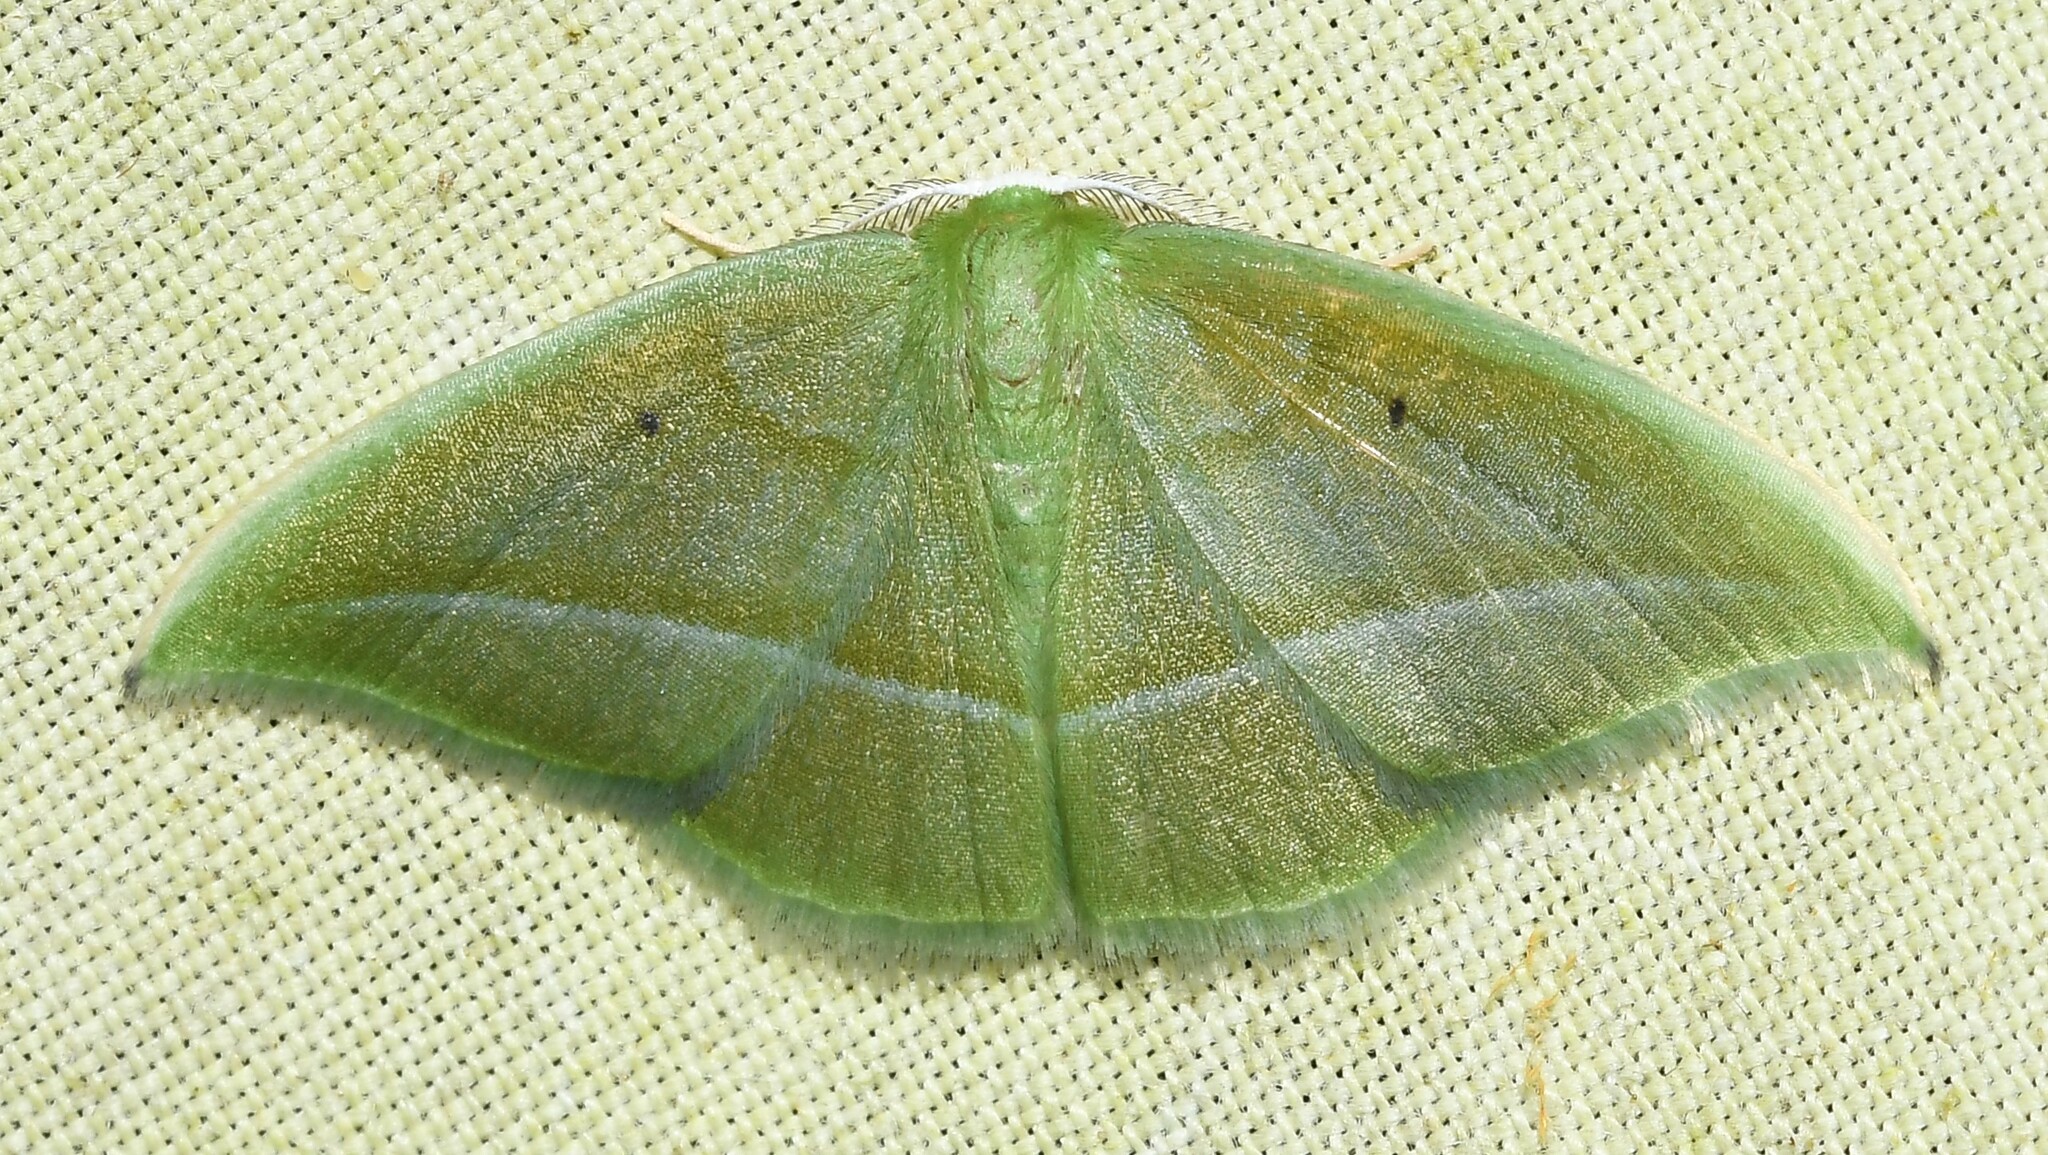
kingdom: Animalia
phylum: Arthropoda
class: Insecta
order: Lepidoptera
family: Geometridae
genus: Phrudocentra
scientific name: Phrudocentra Assachlora assa
